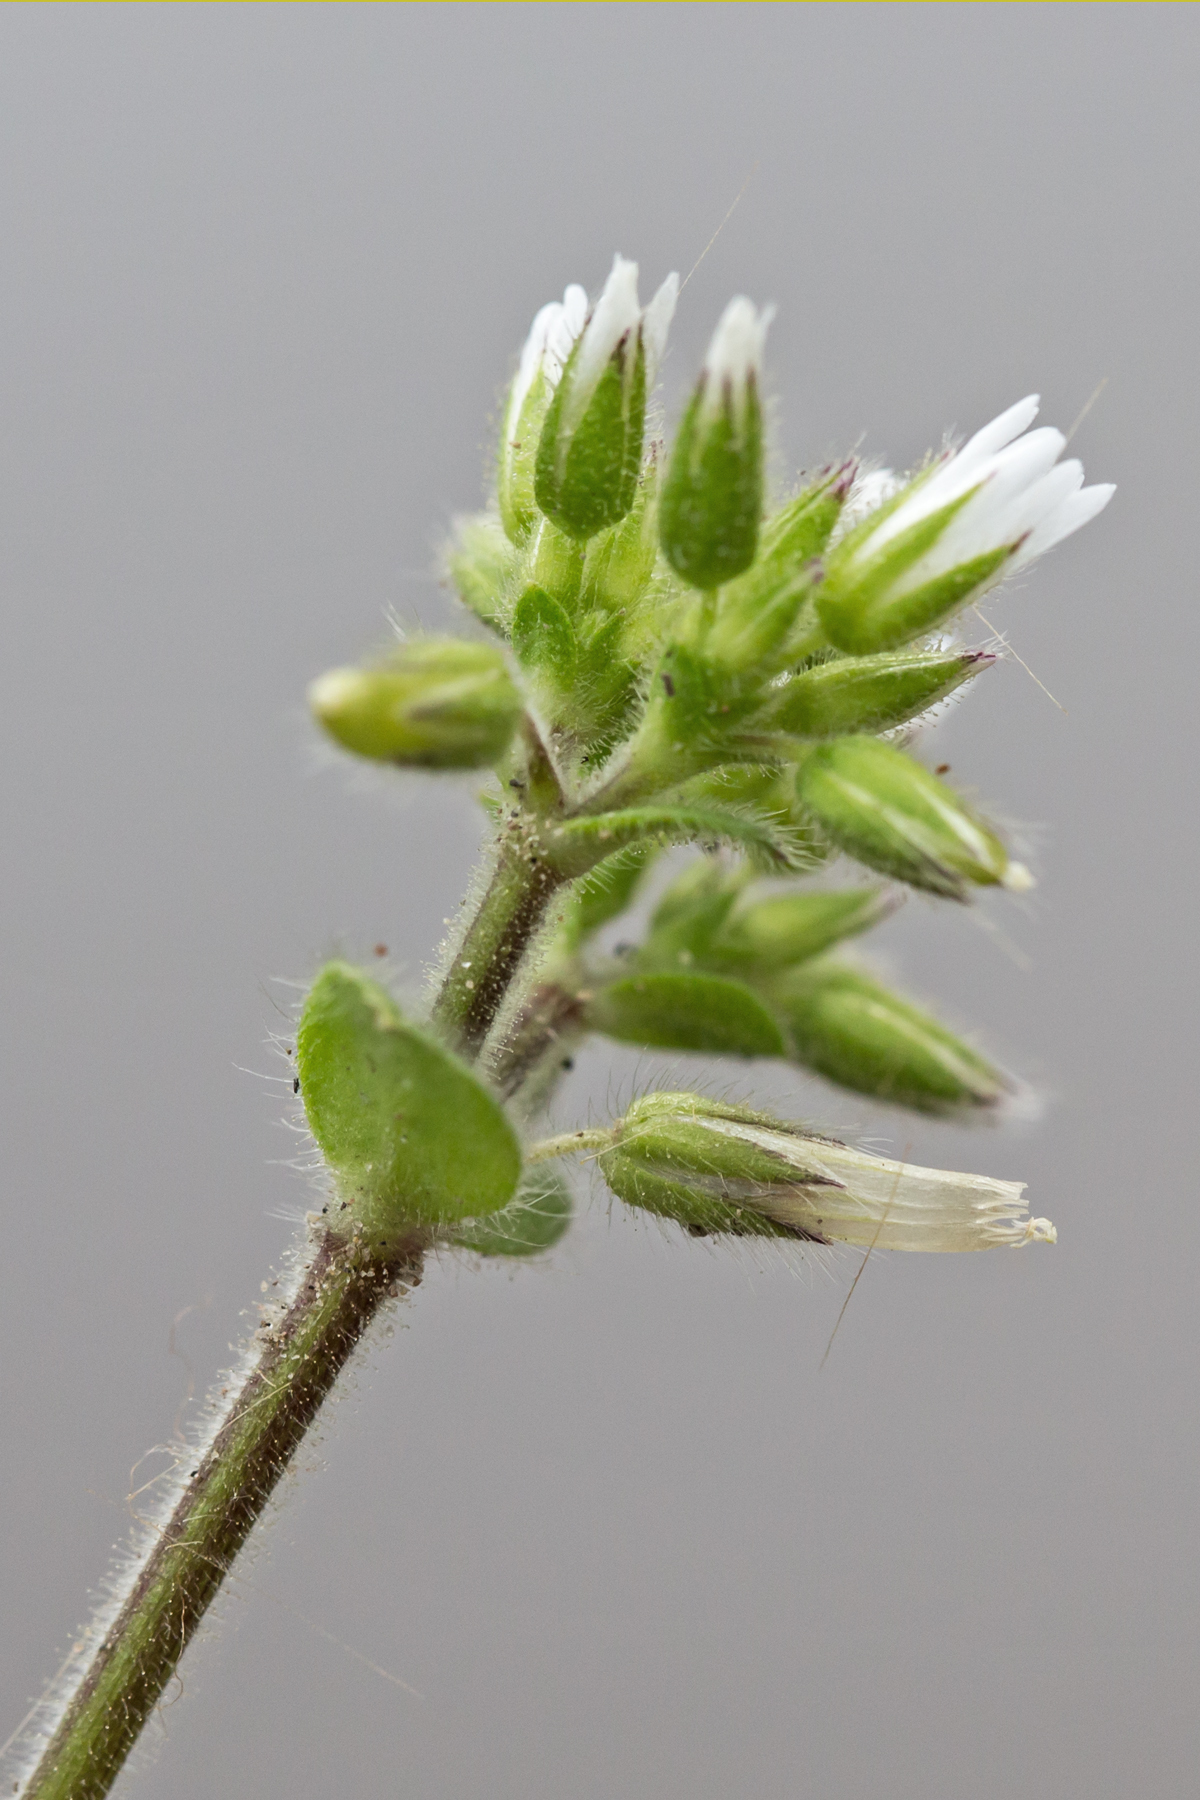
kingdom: Plantae
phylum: Tracheophyta
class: Magnoliopsida
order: Caryophyllales
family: Caryophyllaceae
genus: Cerastium
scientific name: Cerastium glomeratum
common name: Sticky chickweed
